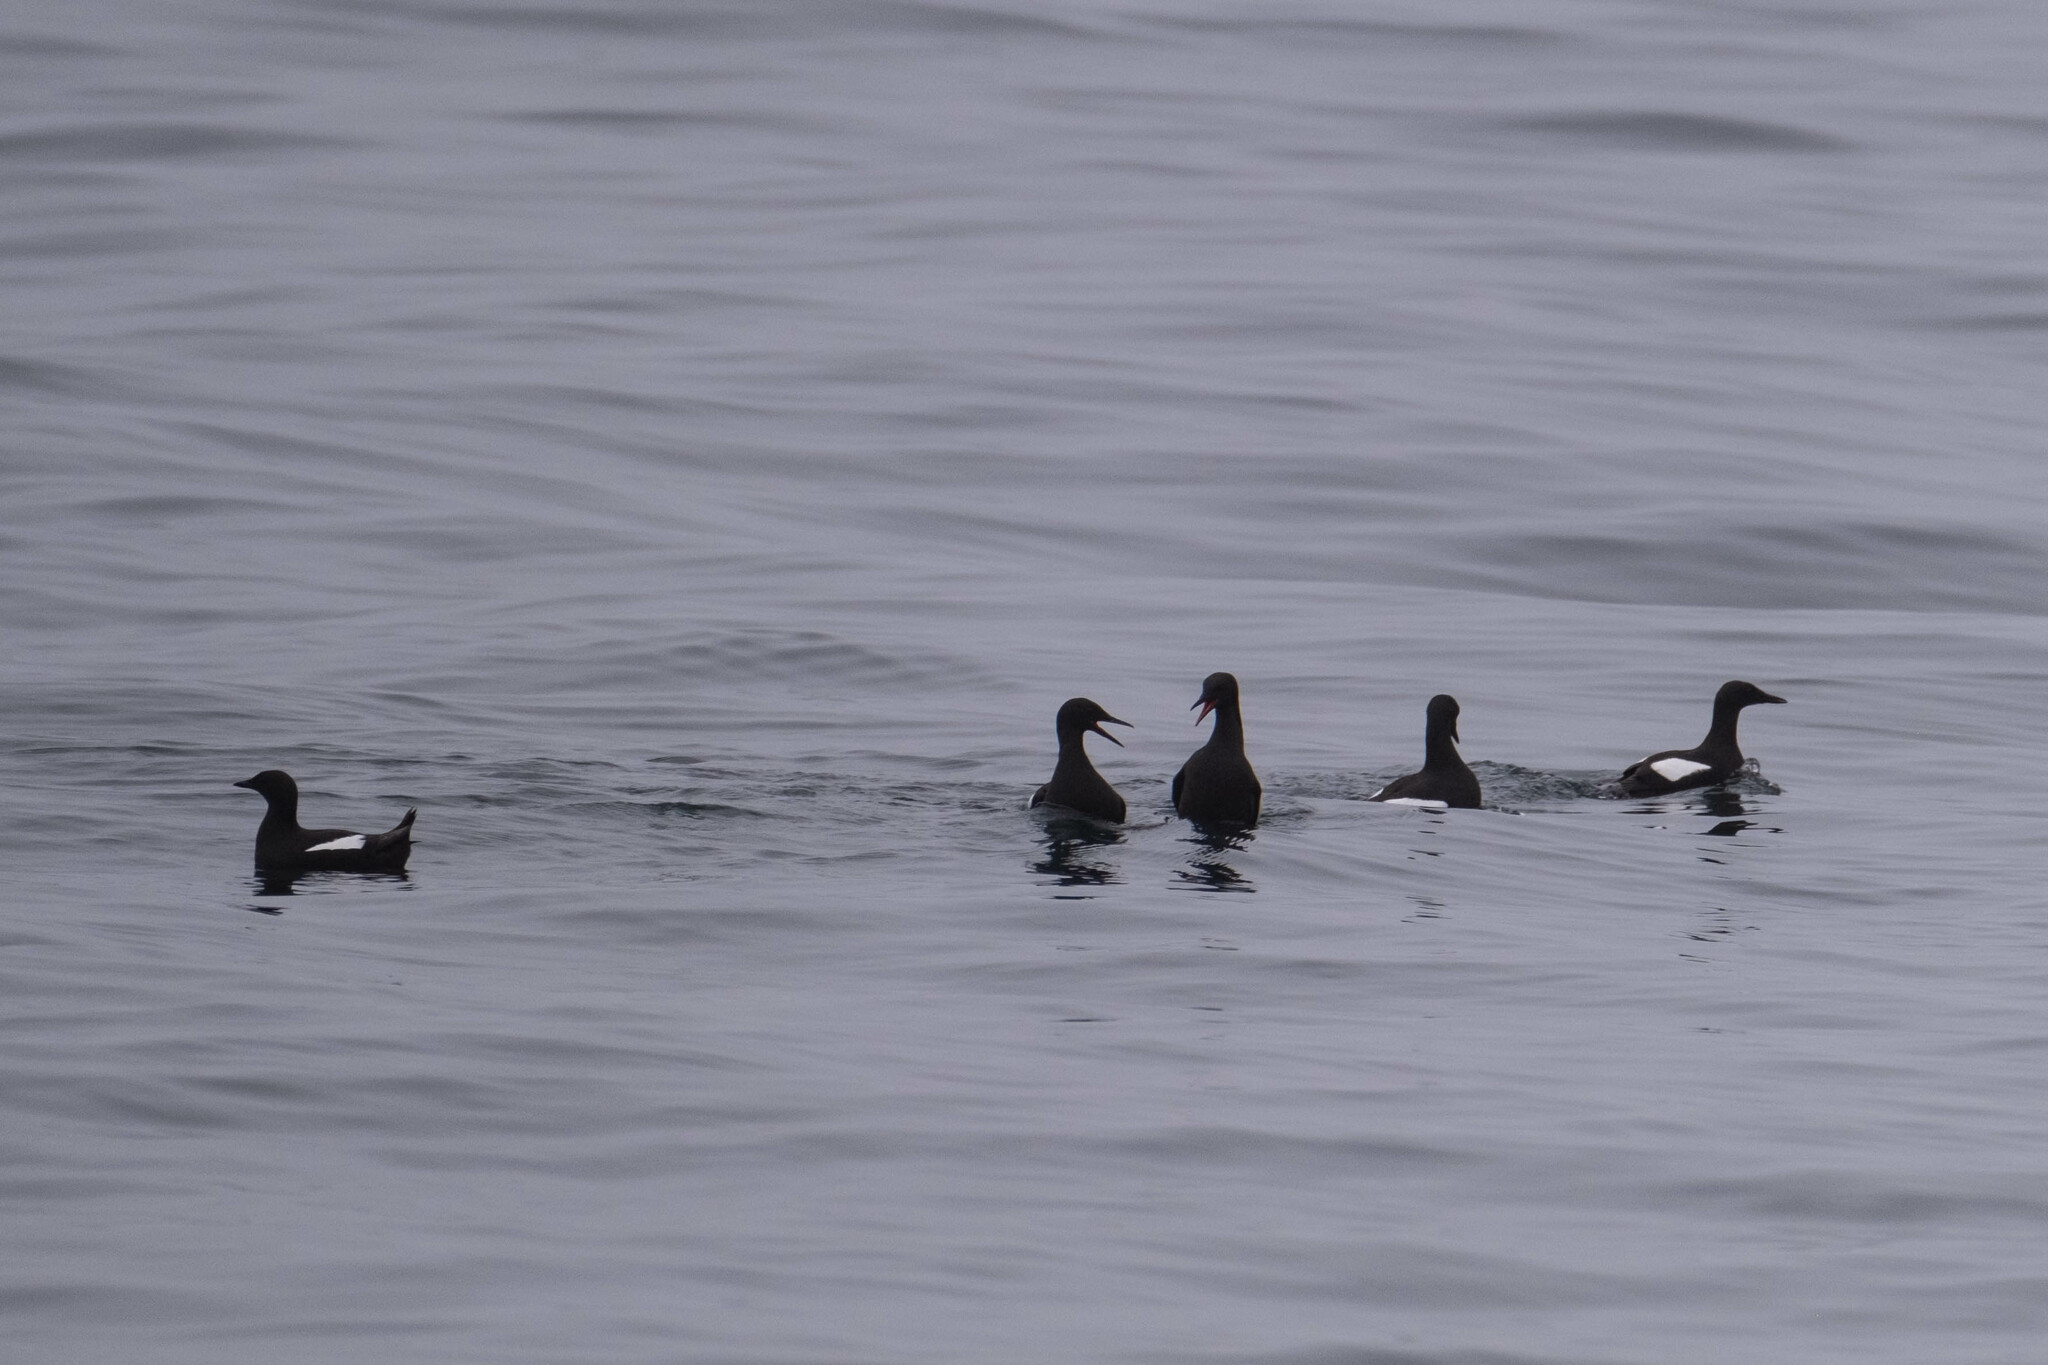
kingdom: Animalia
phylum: Chordata
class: Aves
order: Charadriiformes
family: Alcidae
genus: Cepphus
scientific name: Cepphus grylle
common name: Black guillemot
